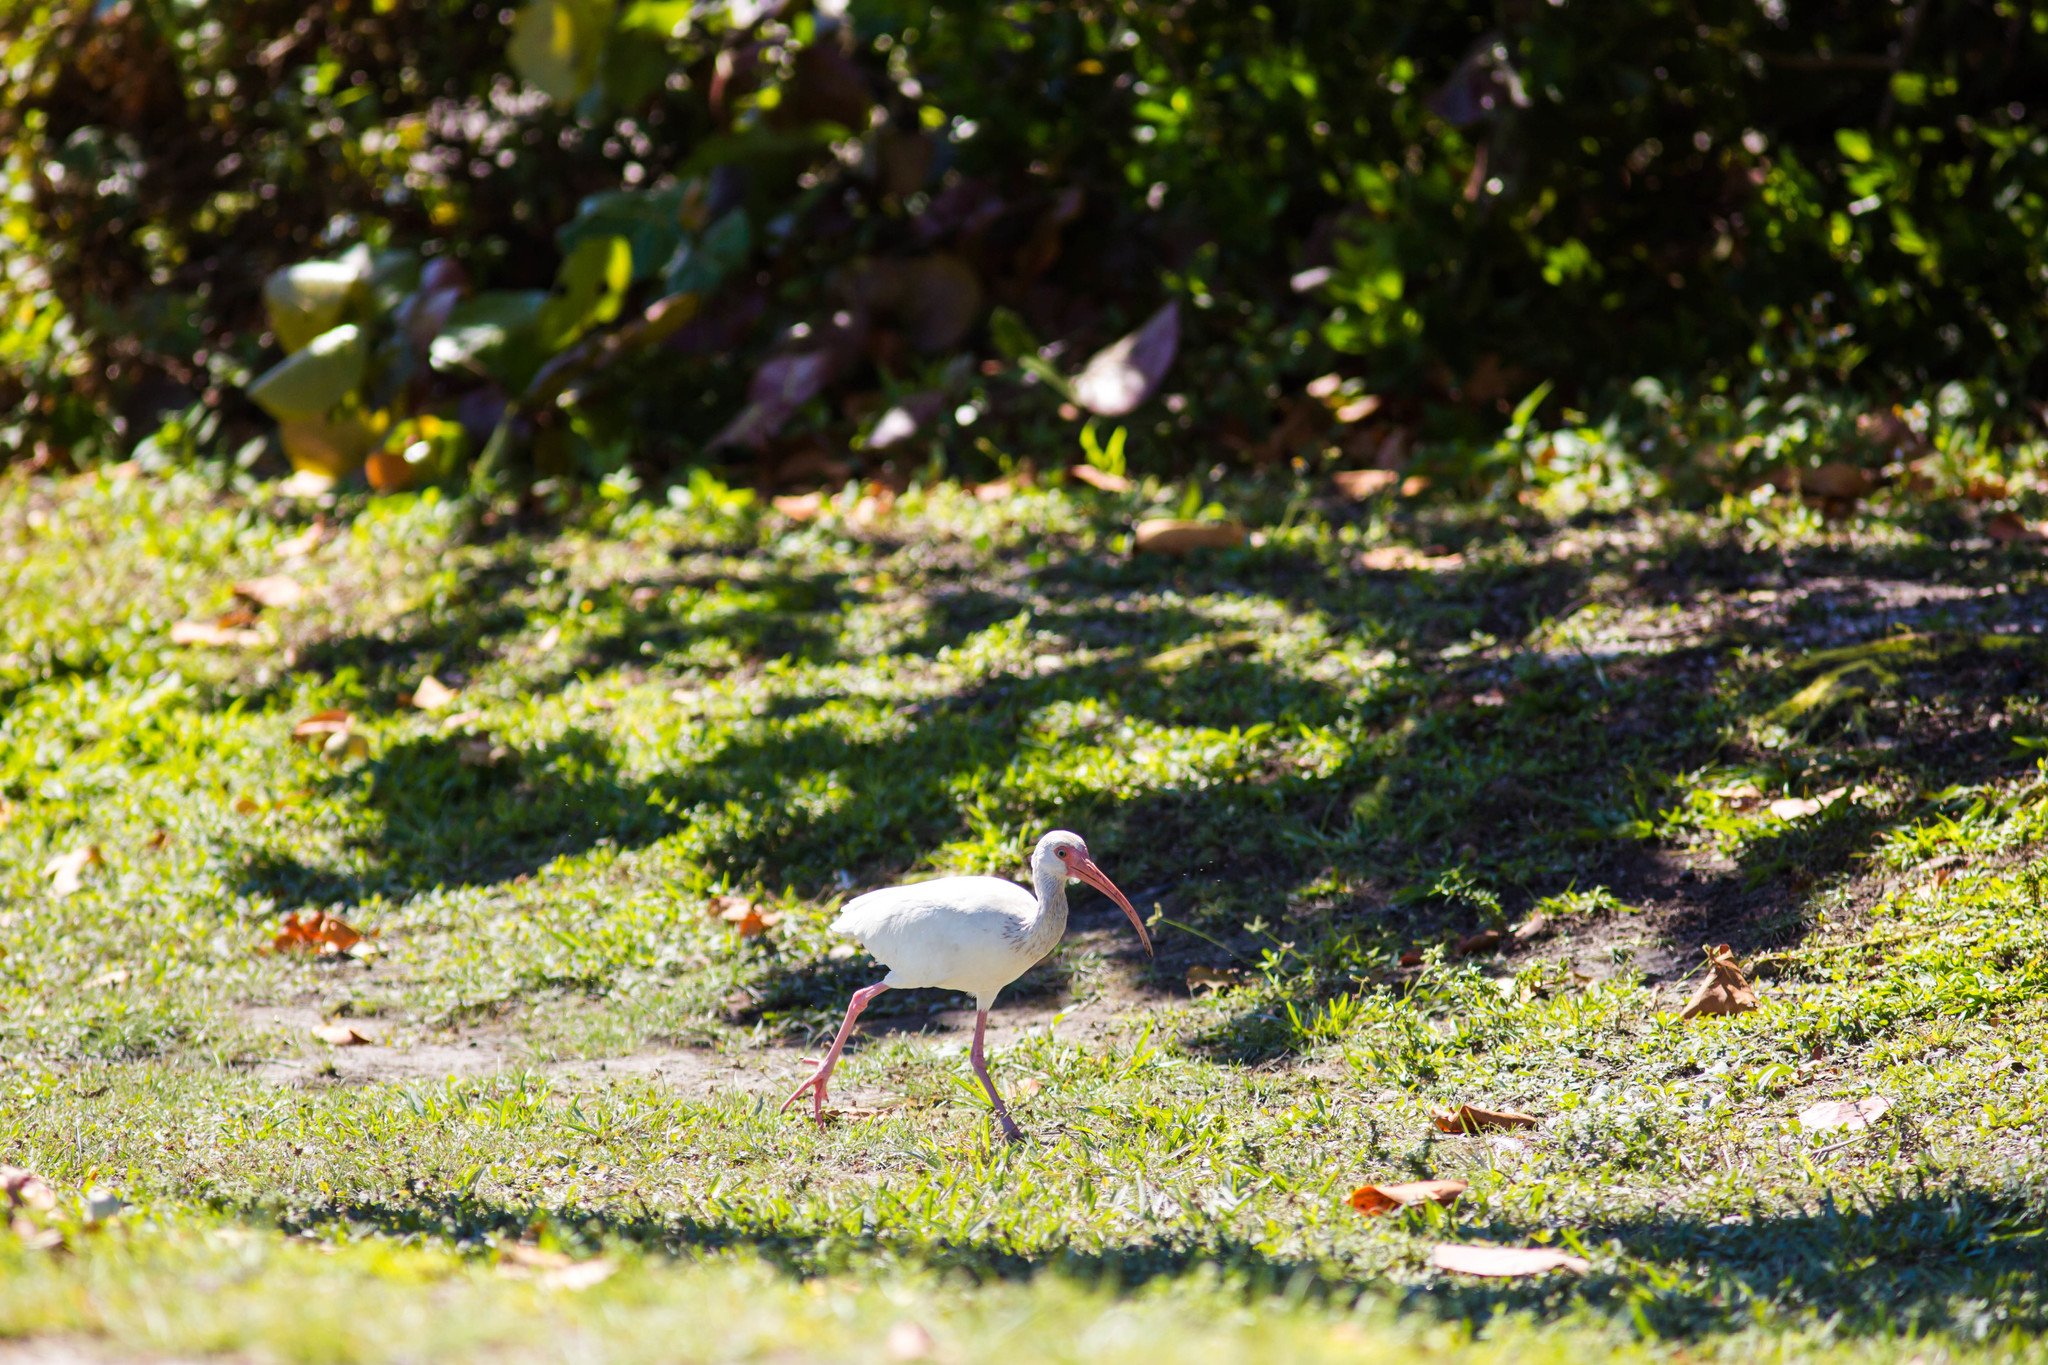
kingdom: Animalia
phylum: Chordata
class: Aves
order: Pelecaniformes
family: Threskiornithidae
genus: Eudocimus
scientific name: Eudocimus albus
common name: White ibis
